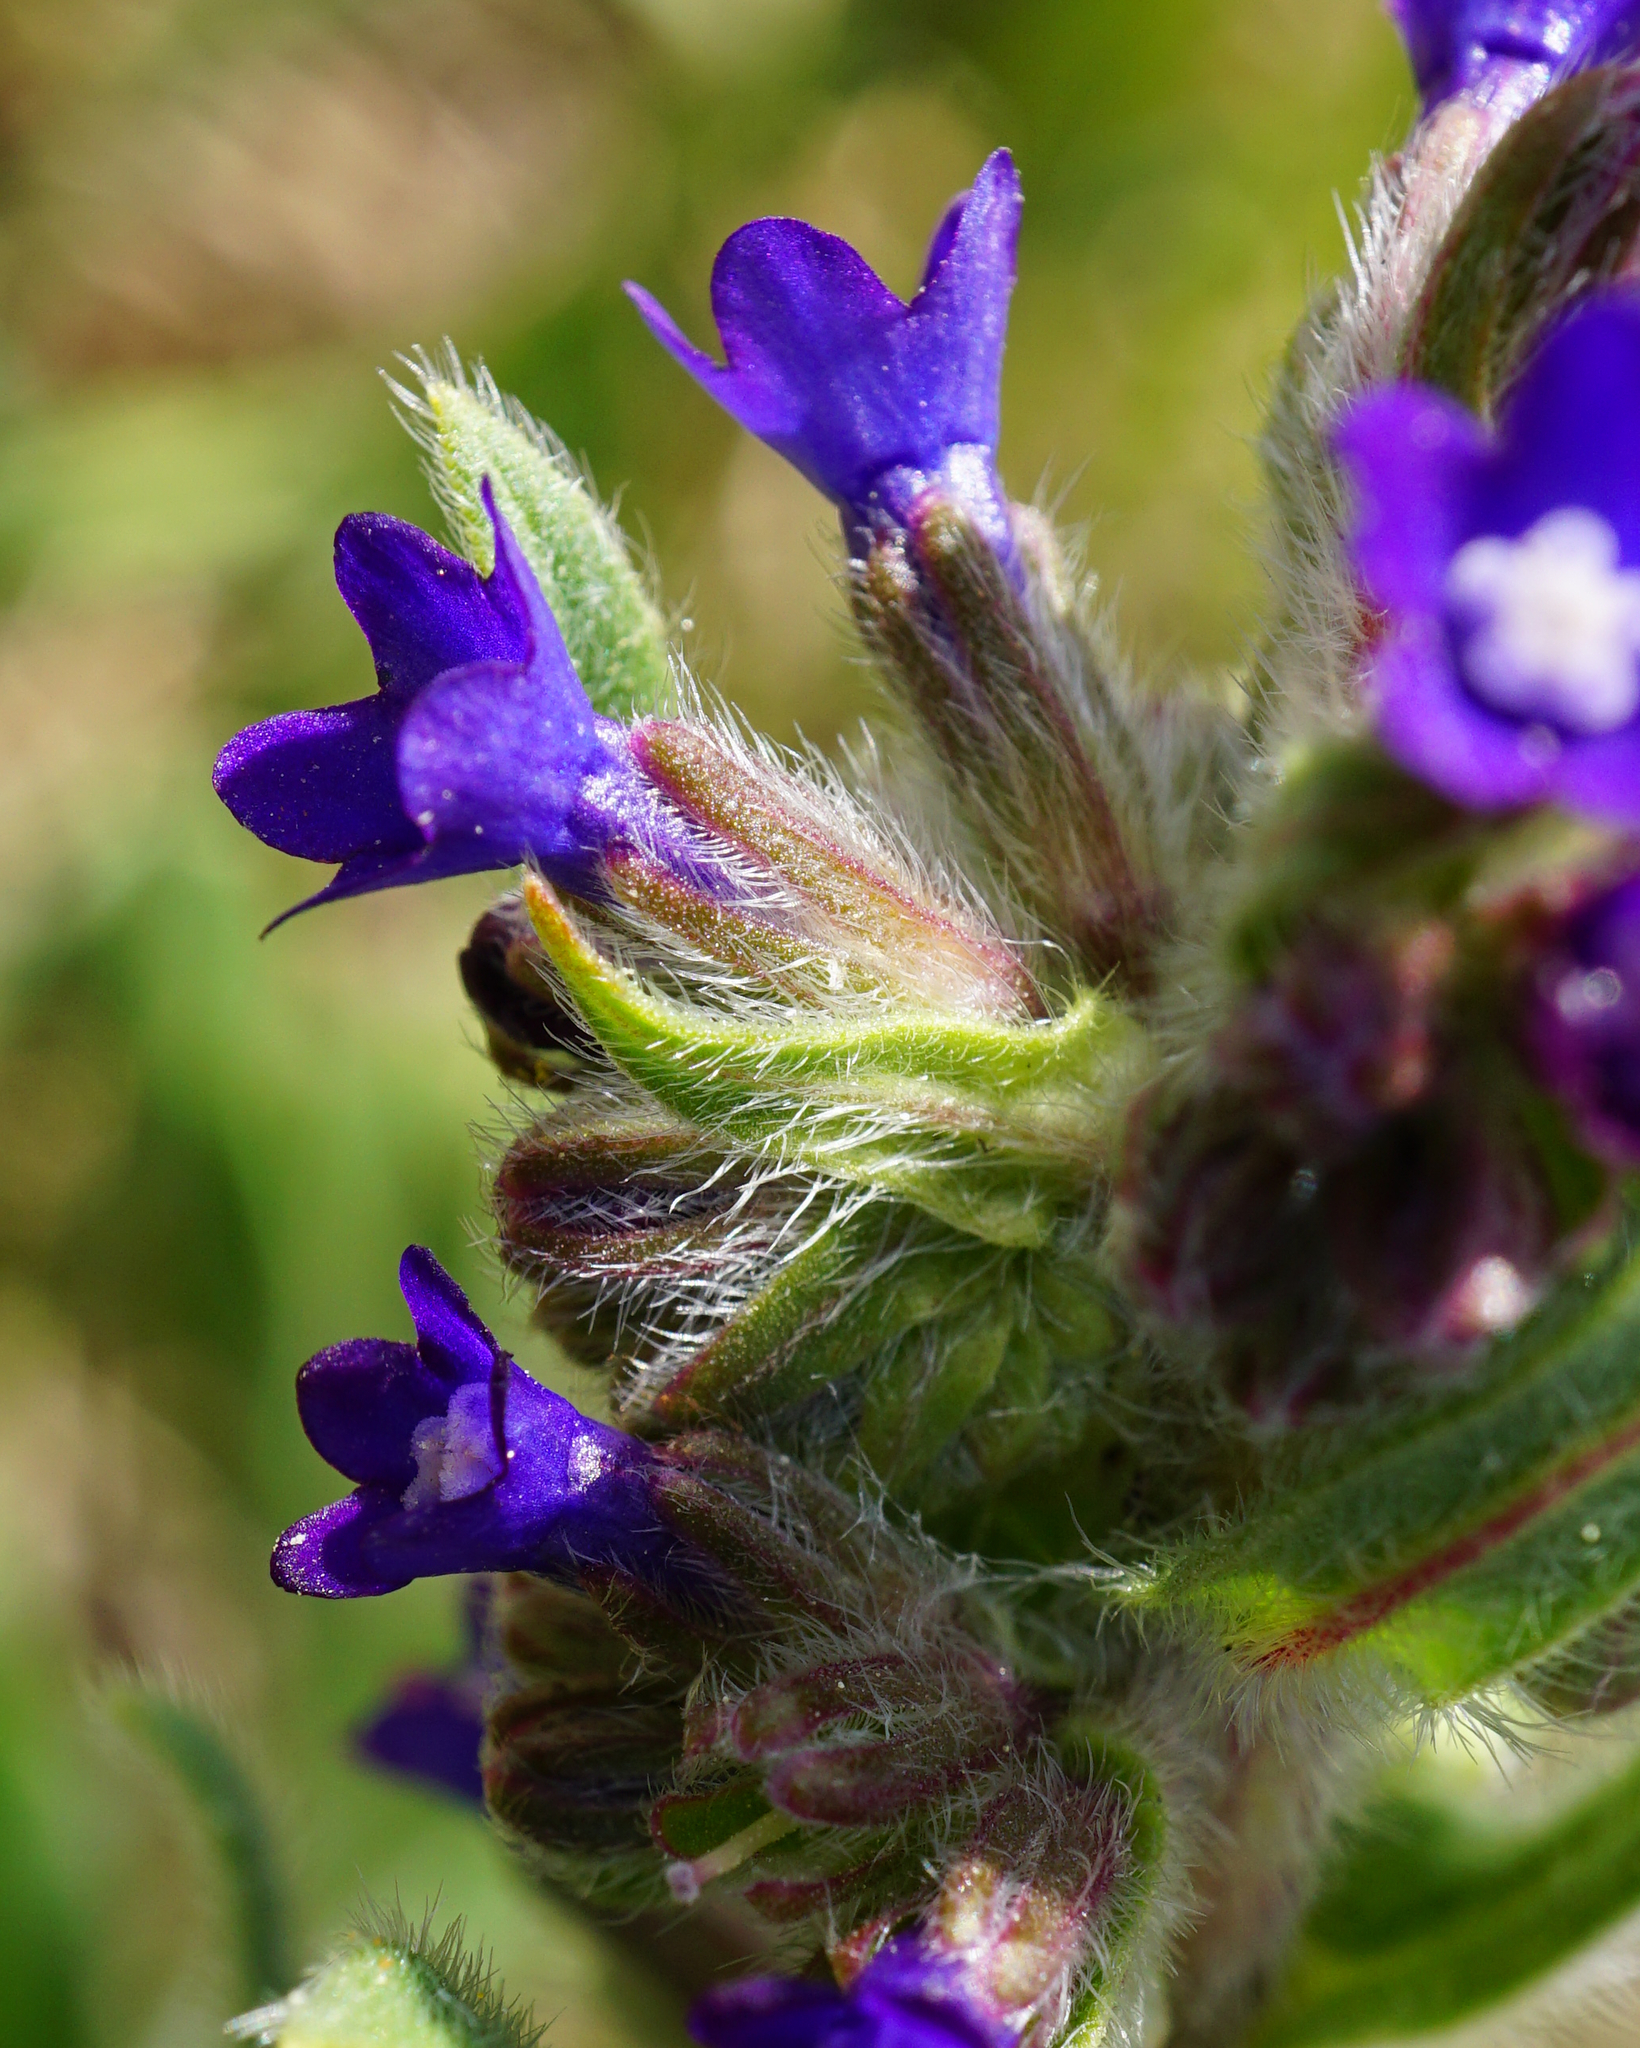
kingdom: Plantae
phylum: Tracheophyta
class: Magnoliopsida
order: Boraginales
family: Boraginaceae
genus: Anchusa
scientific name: Anchusa officinalis
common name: Alkanet
